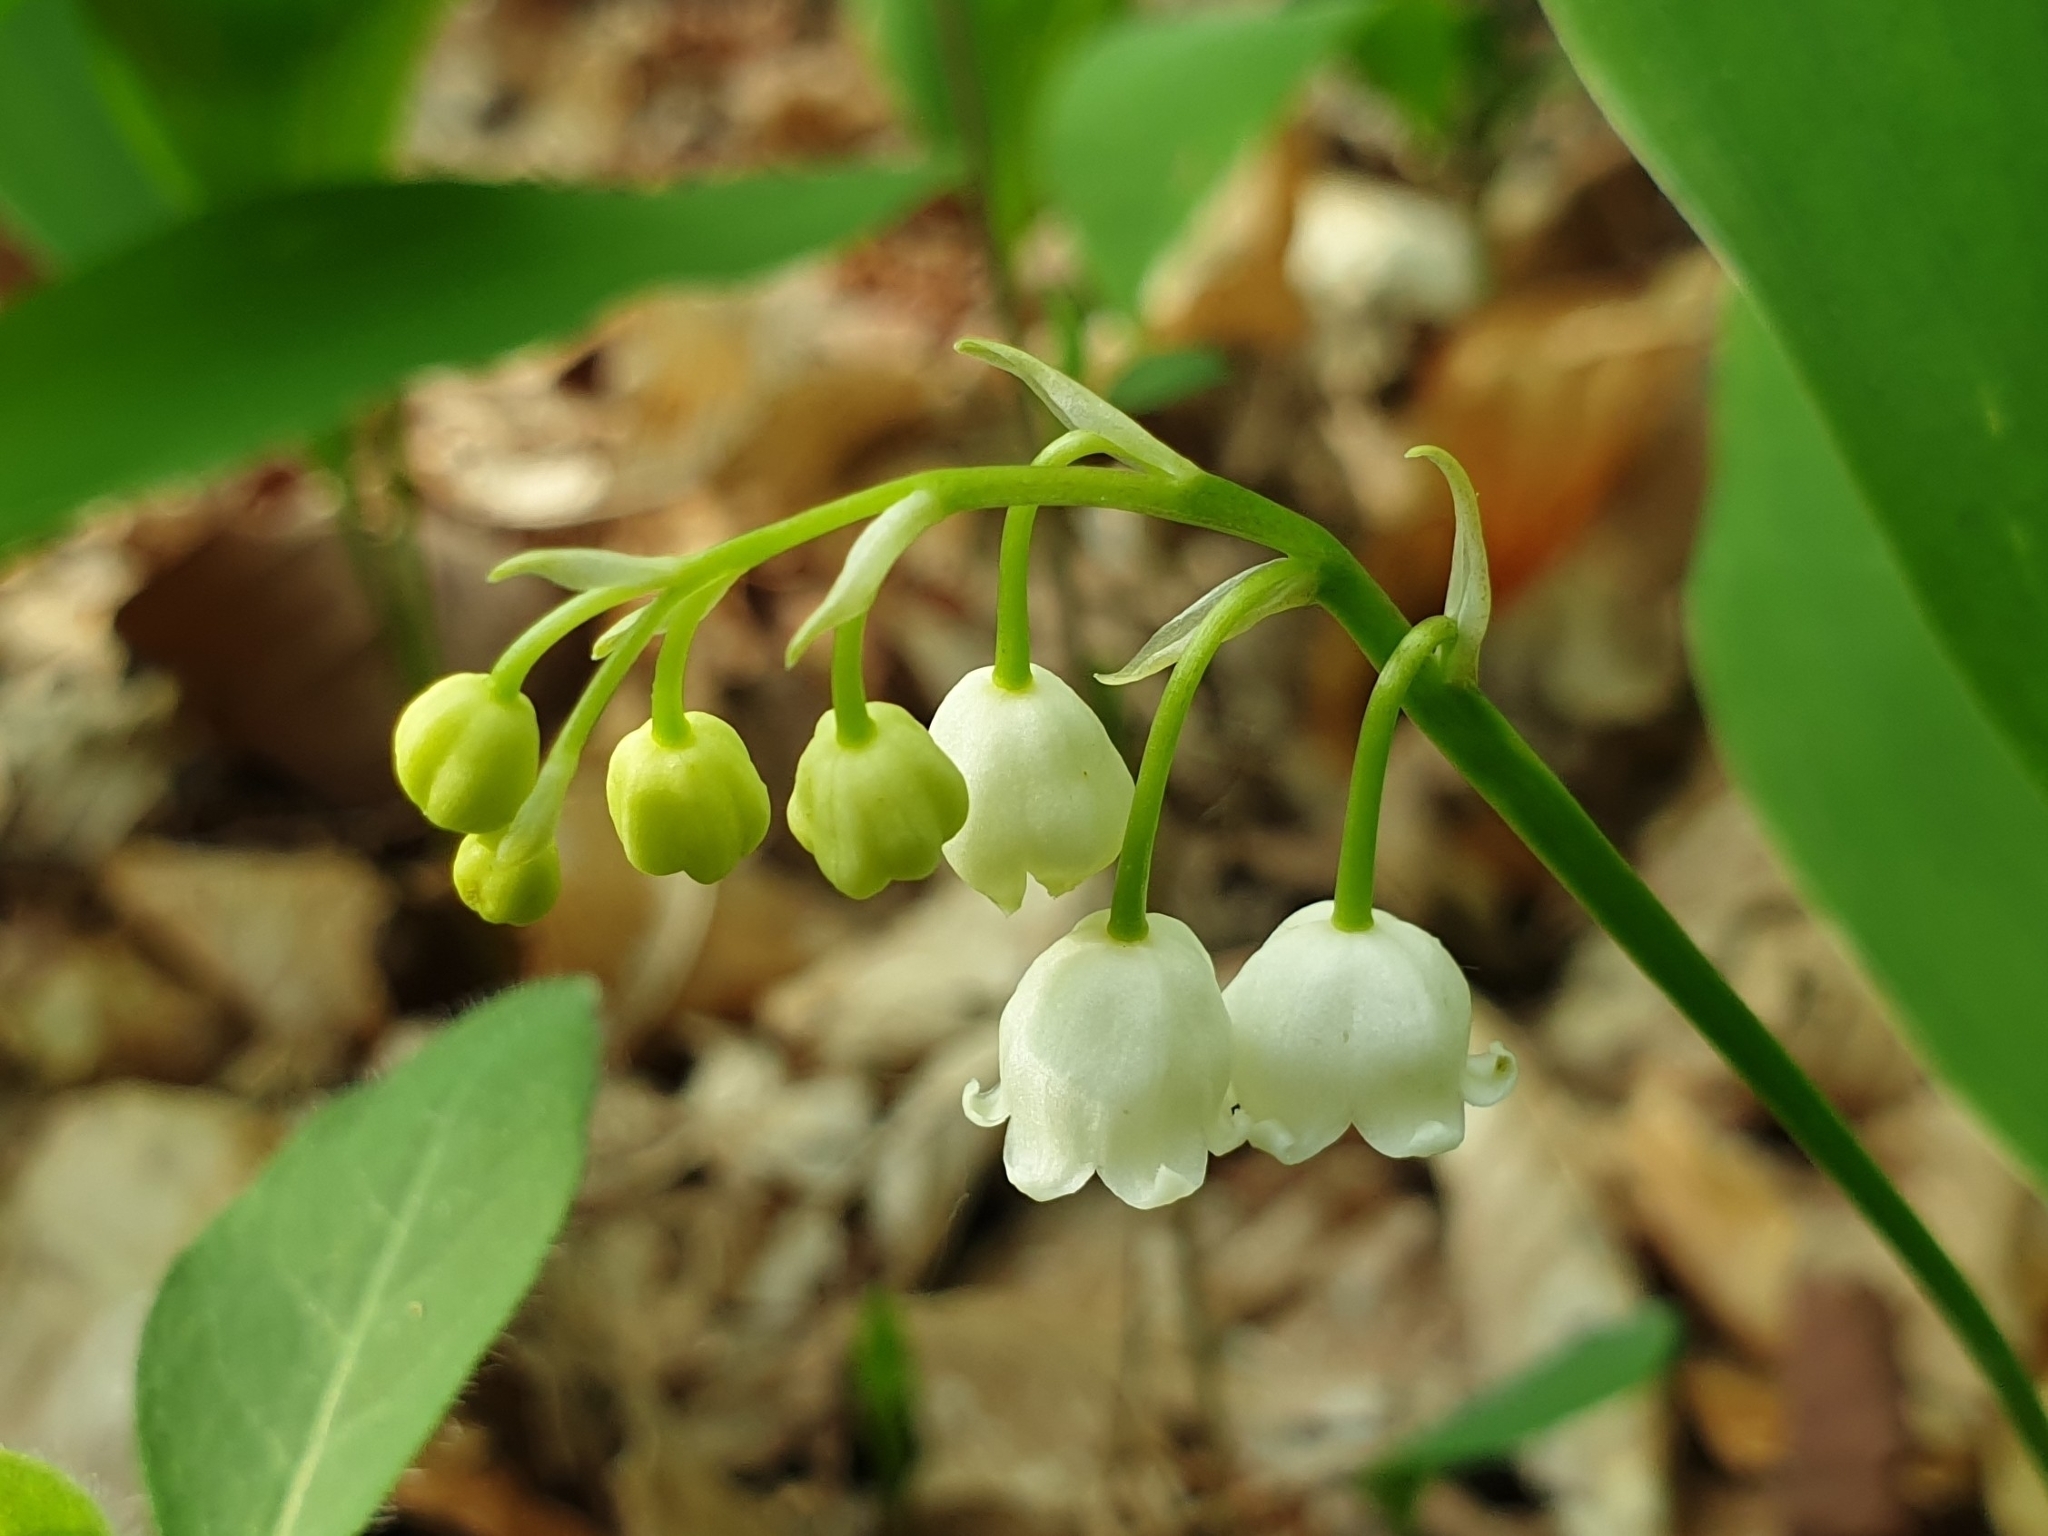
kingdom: Plantae
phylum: Tracheophyta
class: Liliopsida
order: Asparagales
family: Asparagaceae
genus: Convallaria
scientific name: Convallaria majalis
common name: Lily-of-the-valley
